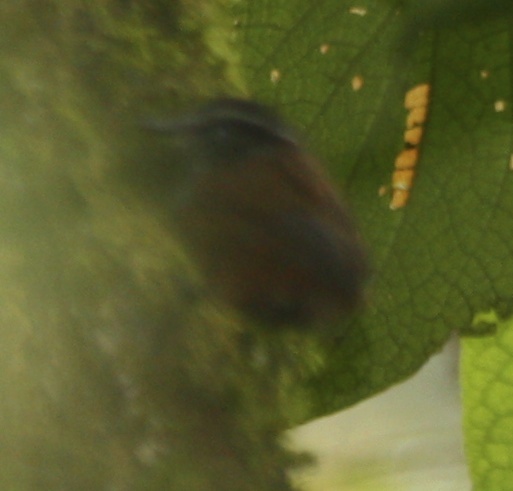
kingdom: Animalia
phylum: Chordata
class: Aves
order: Passeriformes
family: Troglodytidae
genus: Henicorhina
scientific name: Henicorhina leucophrys
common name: Gray-breasted wood-wren
